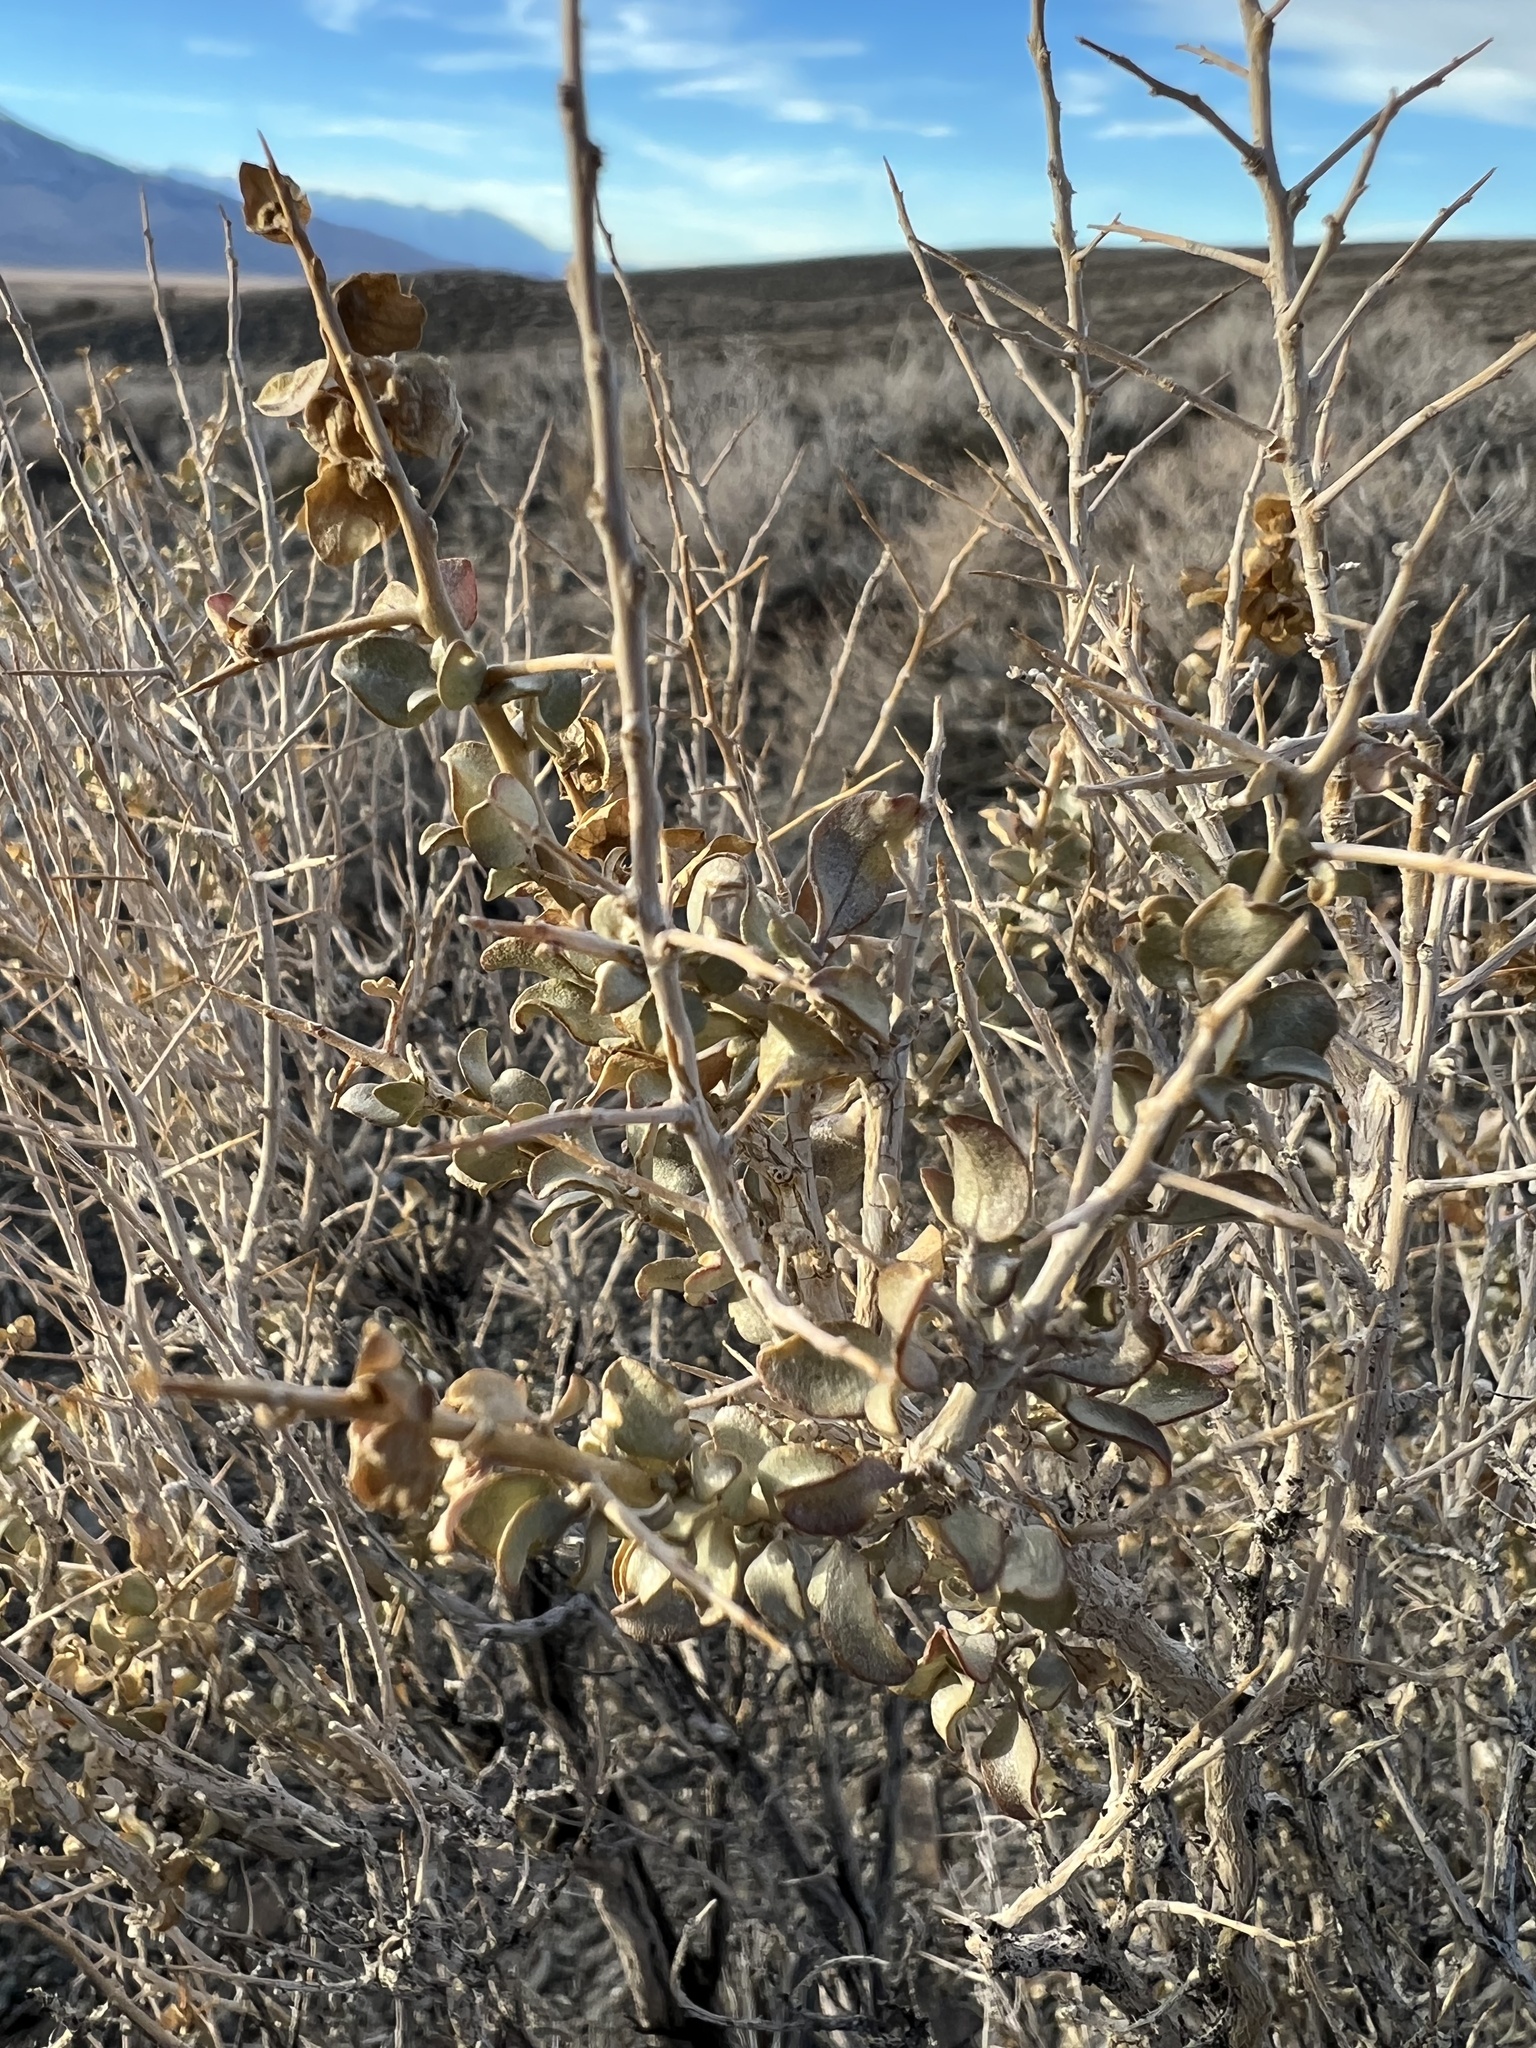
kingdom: Plantae
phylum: Tracheophyta
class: Magnoliopsida
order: Caryophyllales
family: Amaranthaceae
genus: Atriplex
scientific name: Atriplex confertifolia
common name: Shadscale
